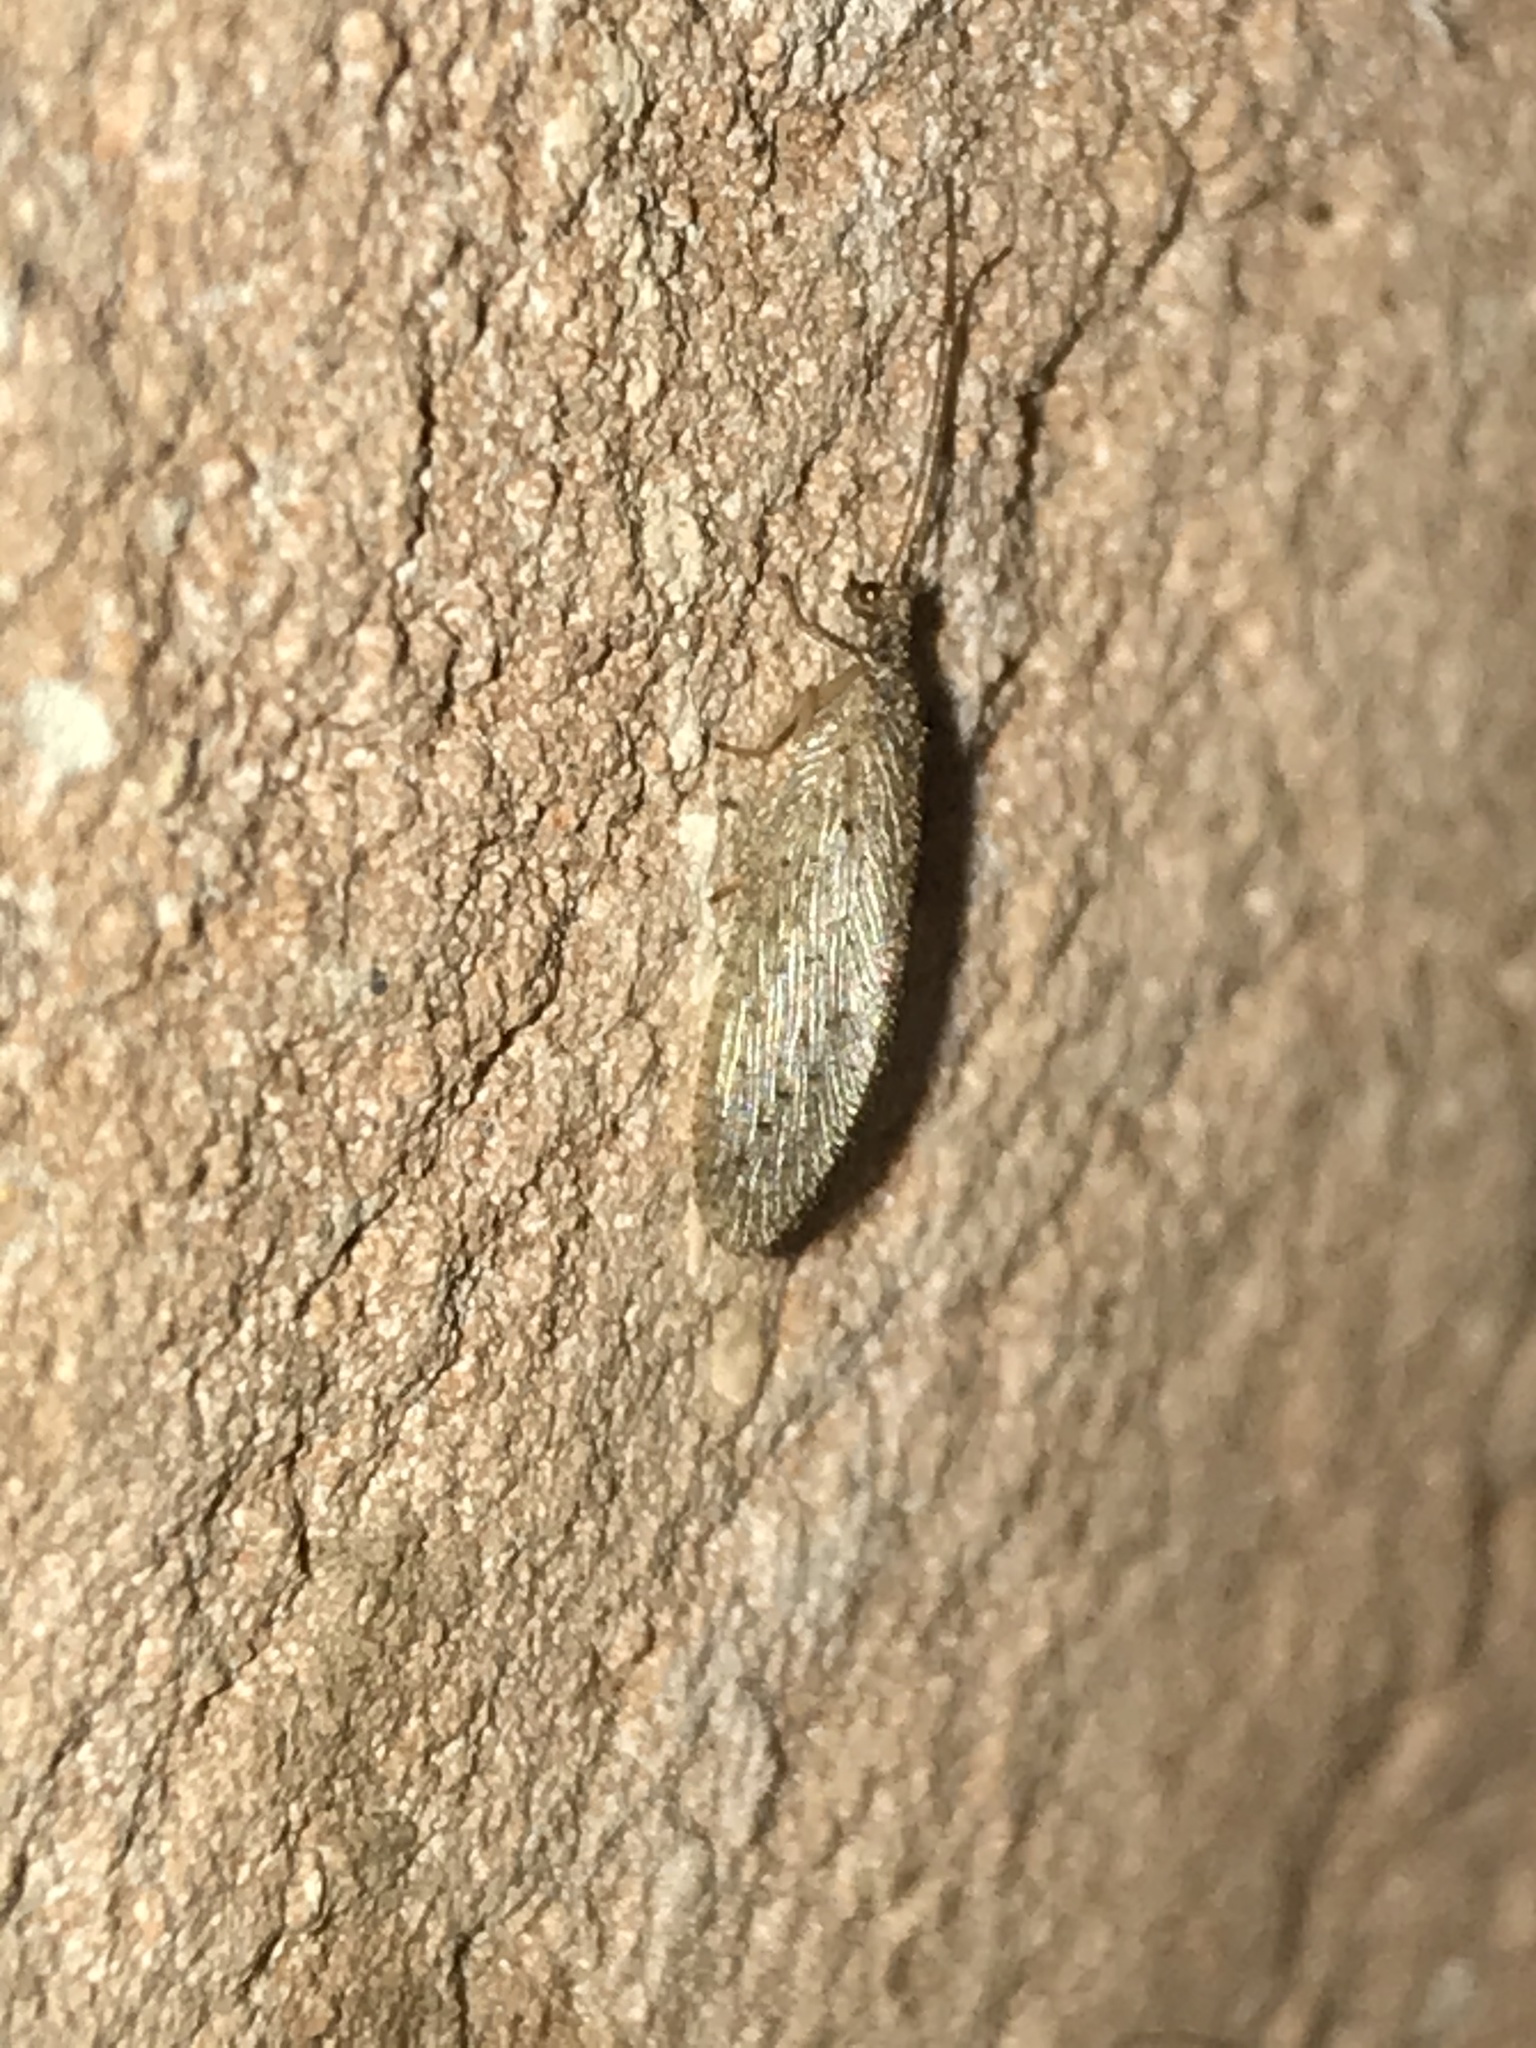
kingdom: Animalia
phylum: Arthropoda
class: Insecta
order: Neuroptera
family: Hemerobiidae
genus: Micromus
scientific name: Micromus subanticus
